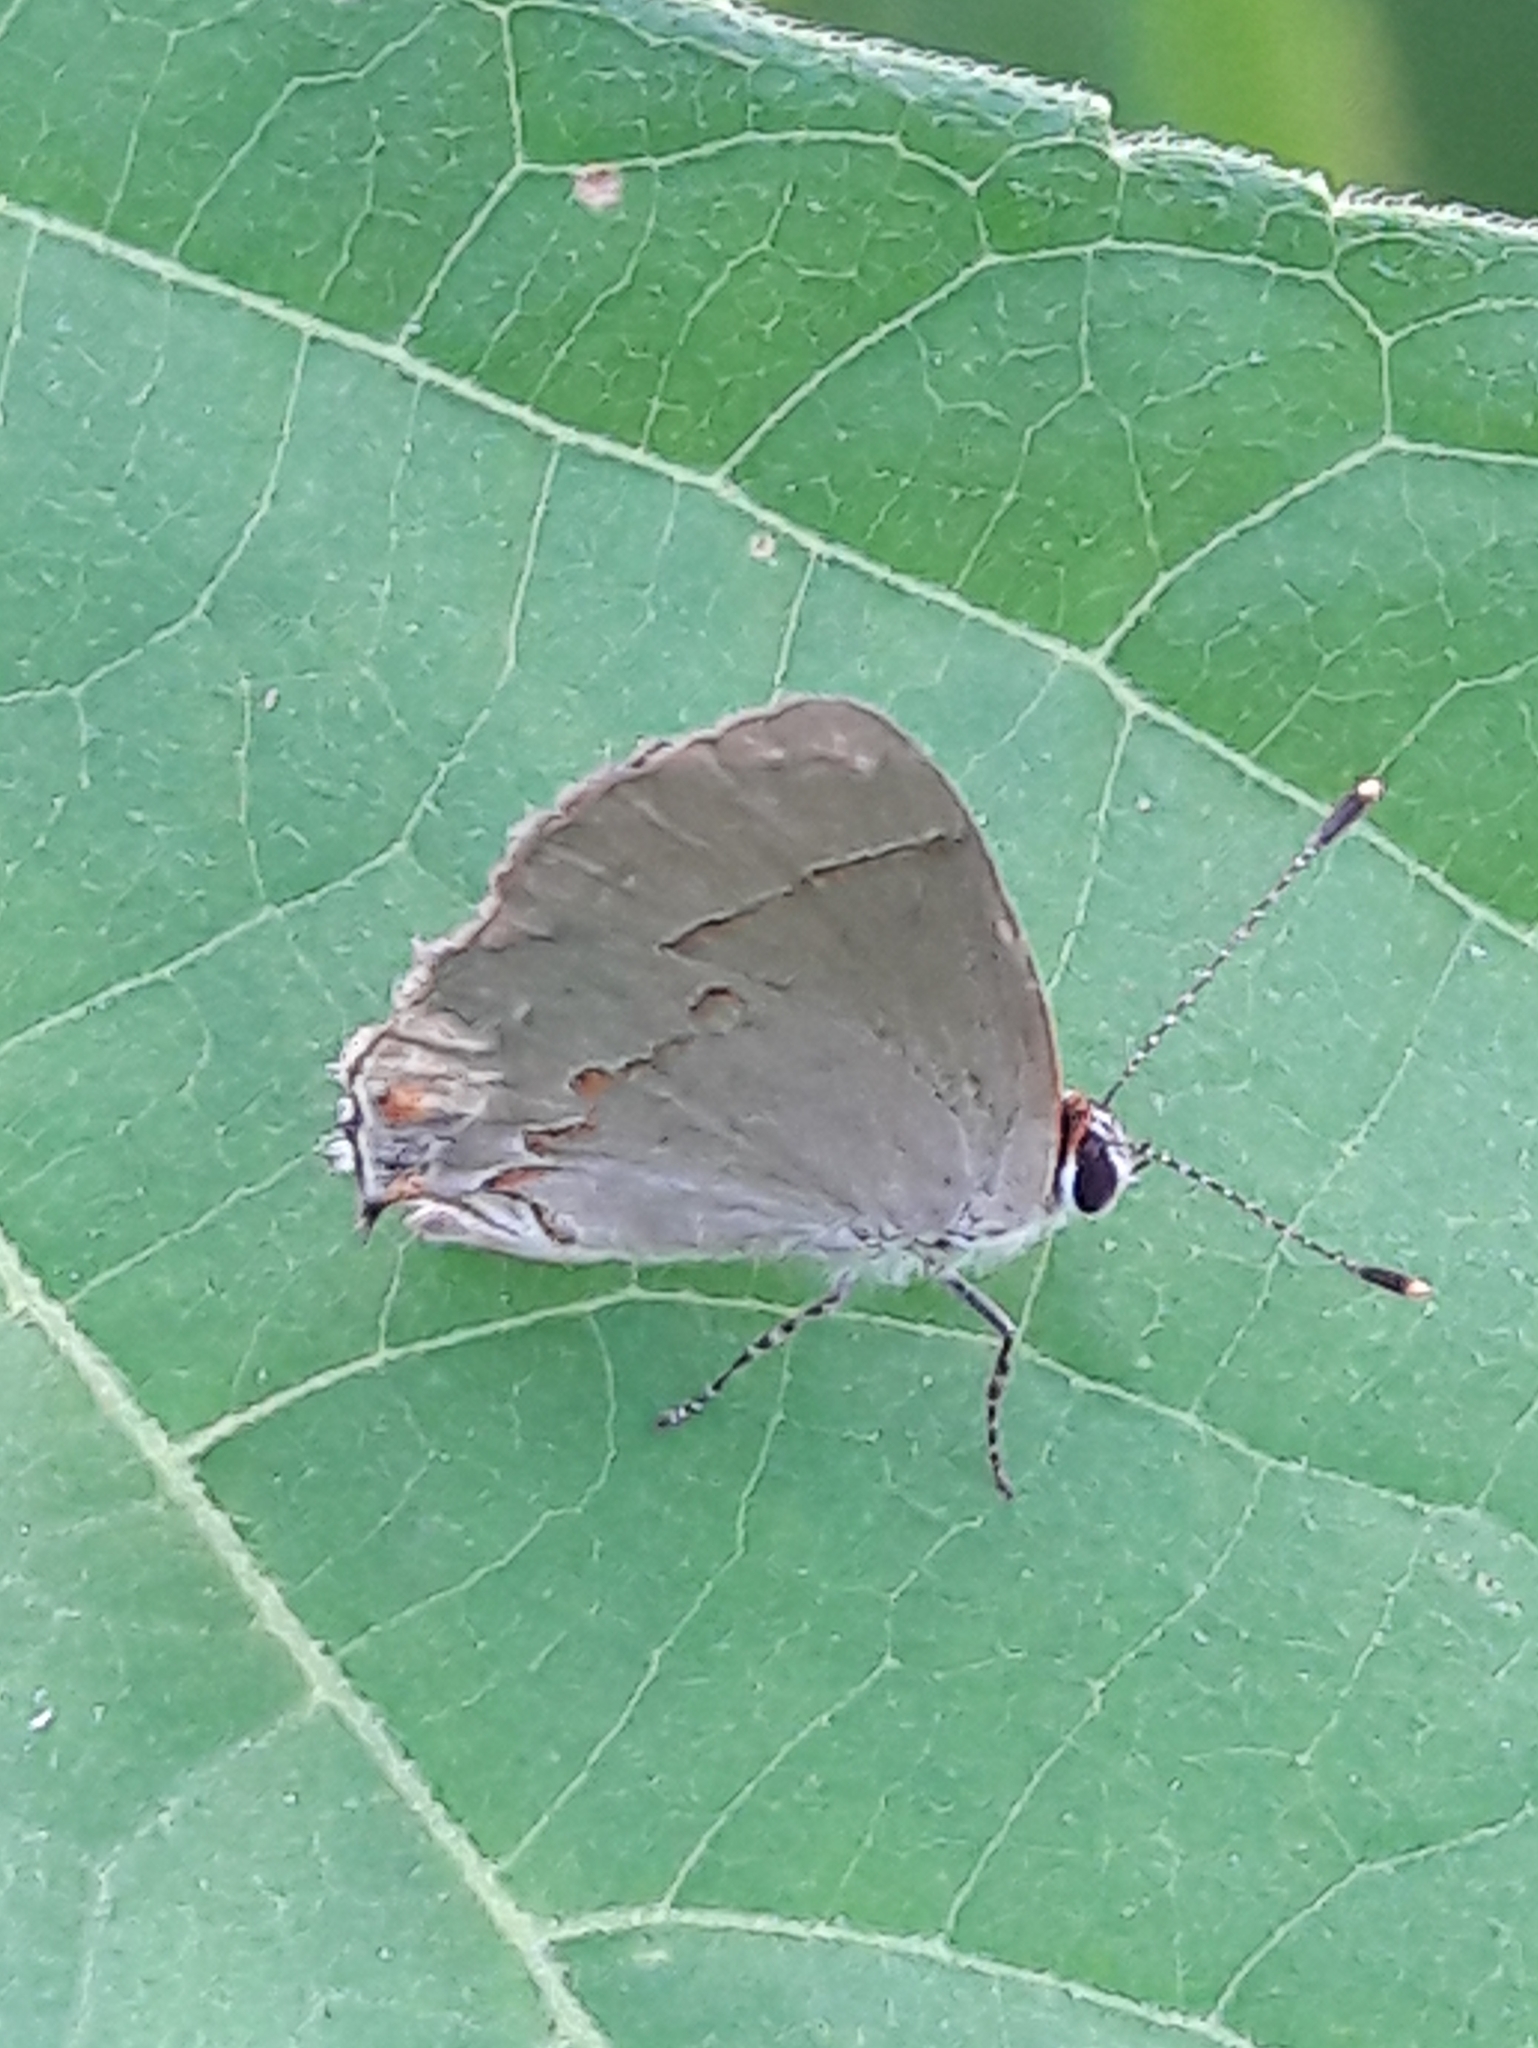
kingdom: Animalia
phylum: Arthropoda
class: Insecta
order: Lepidoptera
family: Lycaenidae
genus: Thecla
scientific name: Thecla azia
